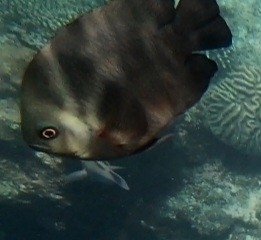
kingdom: Animalia
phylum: Chordata
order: Perciformes
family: Pomacentridae
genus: Dascyllus
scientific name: Dascyllus trimaculatus
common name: Threespot dascyllus
